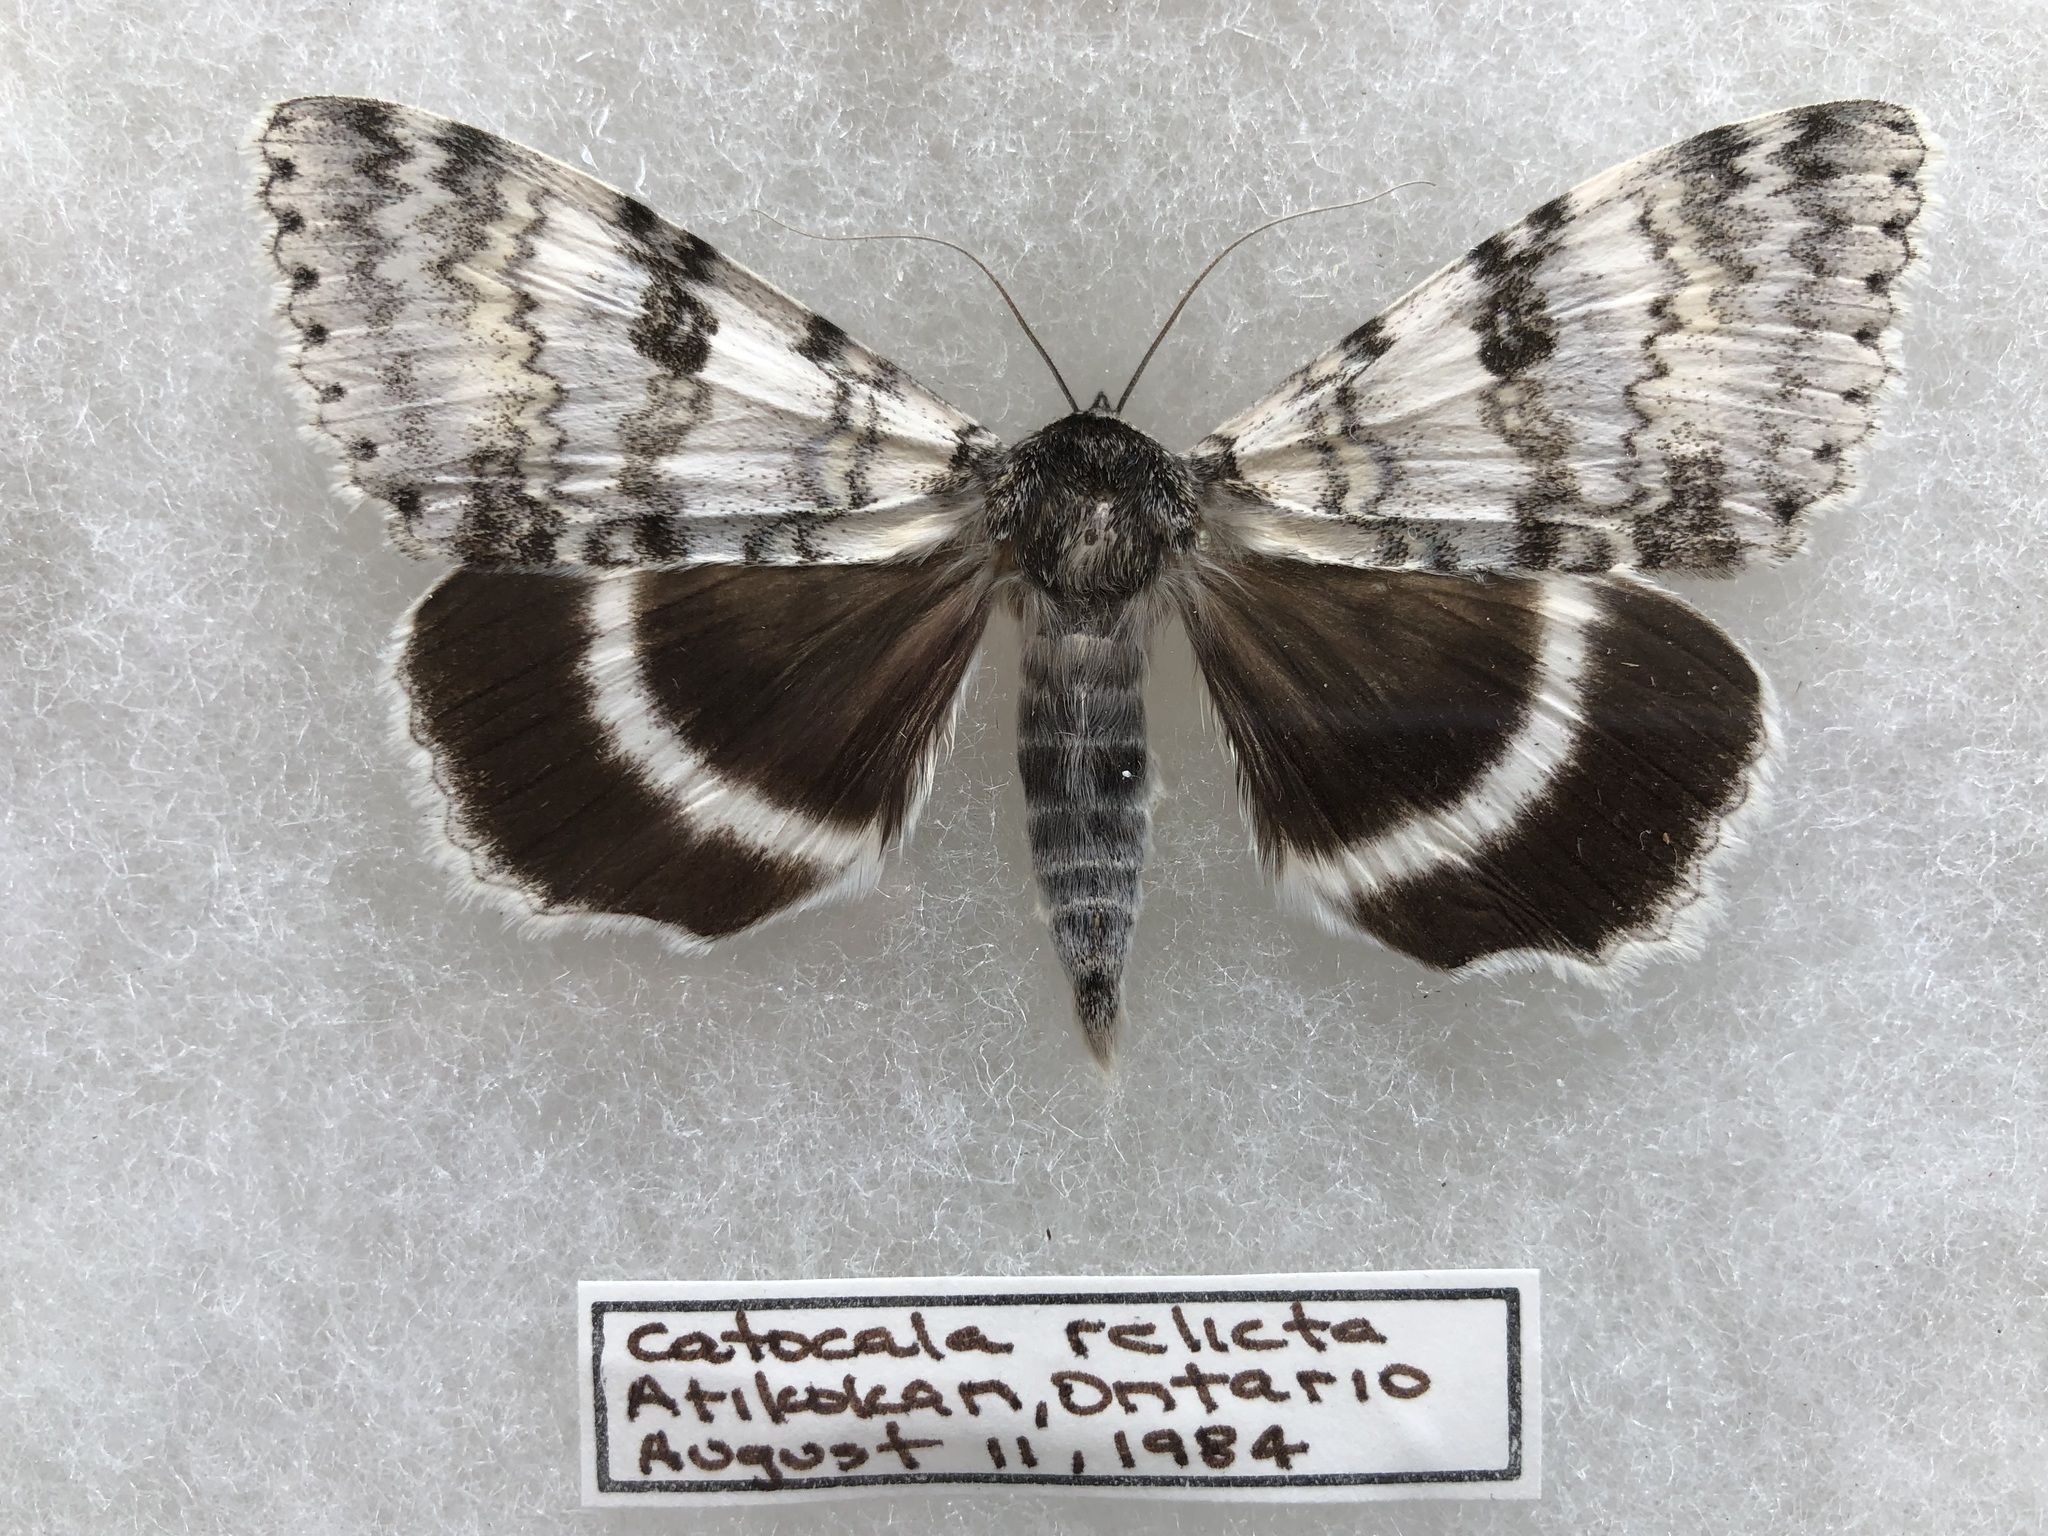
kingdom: Animalia
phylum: Arthropoda
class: Insecta
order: Lepidoptera
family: Erebidae
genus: Catocala
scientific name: Catocala relicta
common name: White underwing
